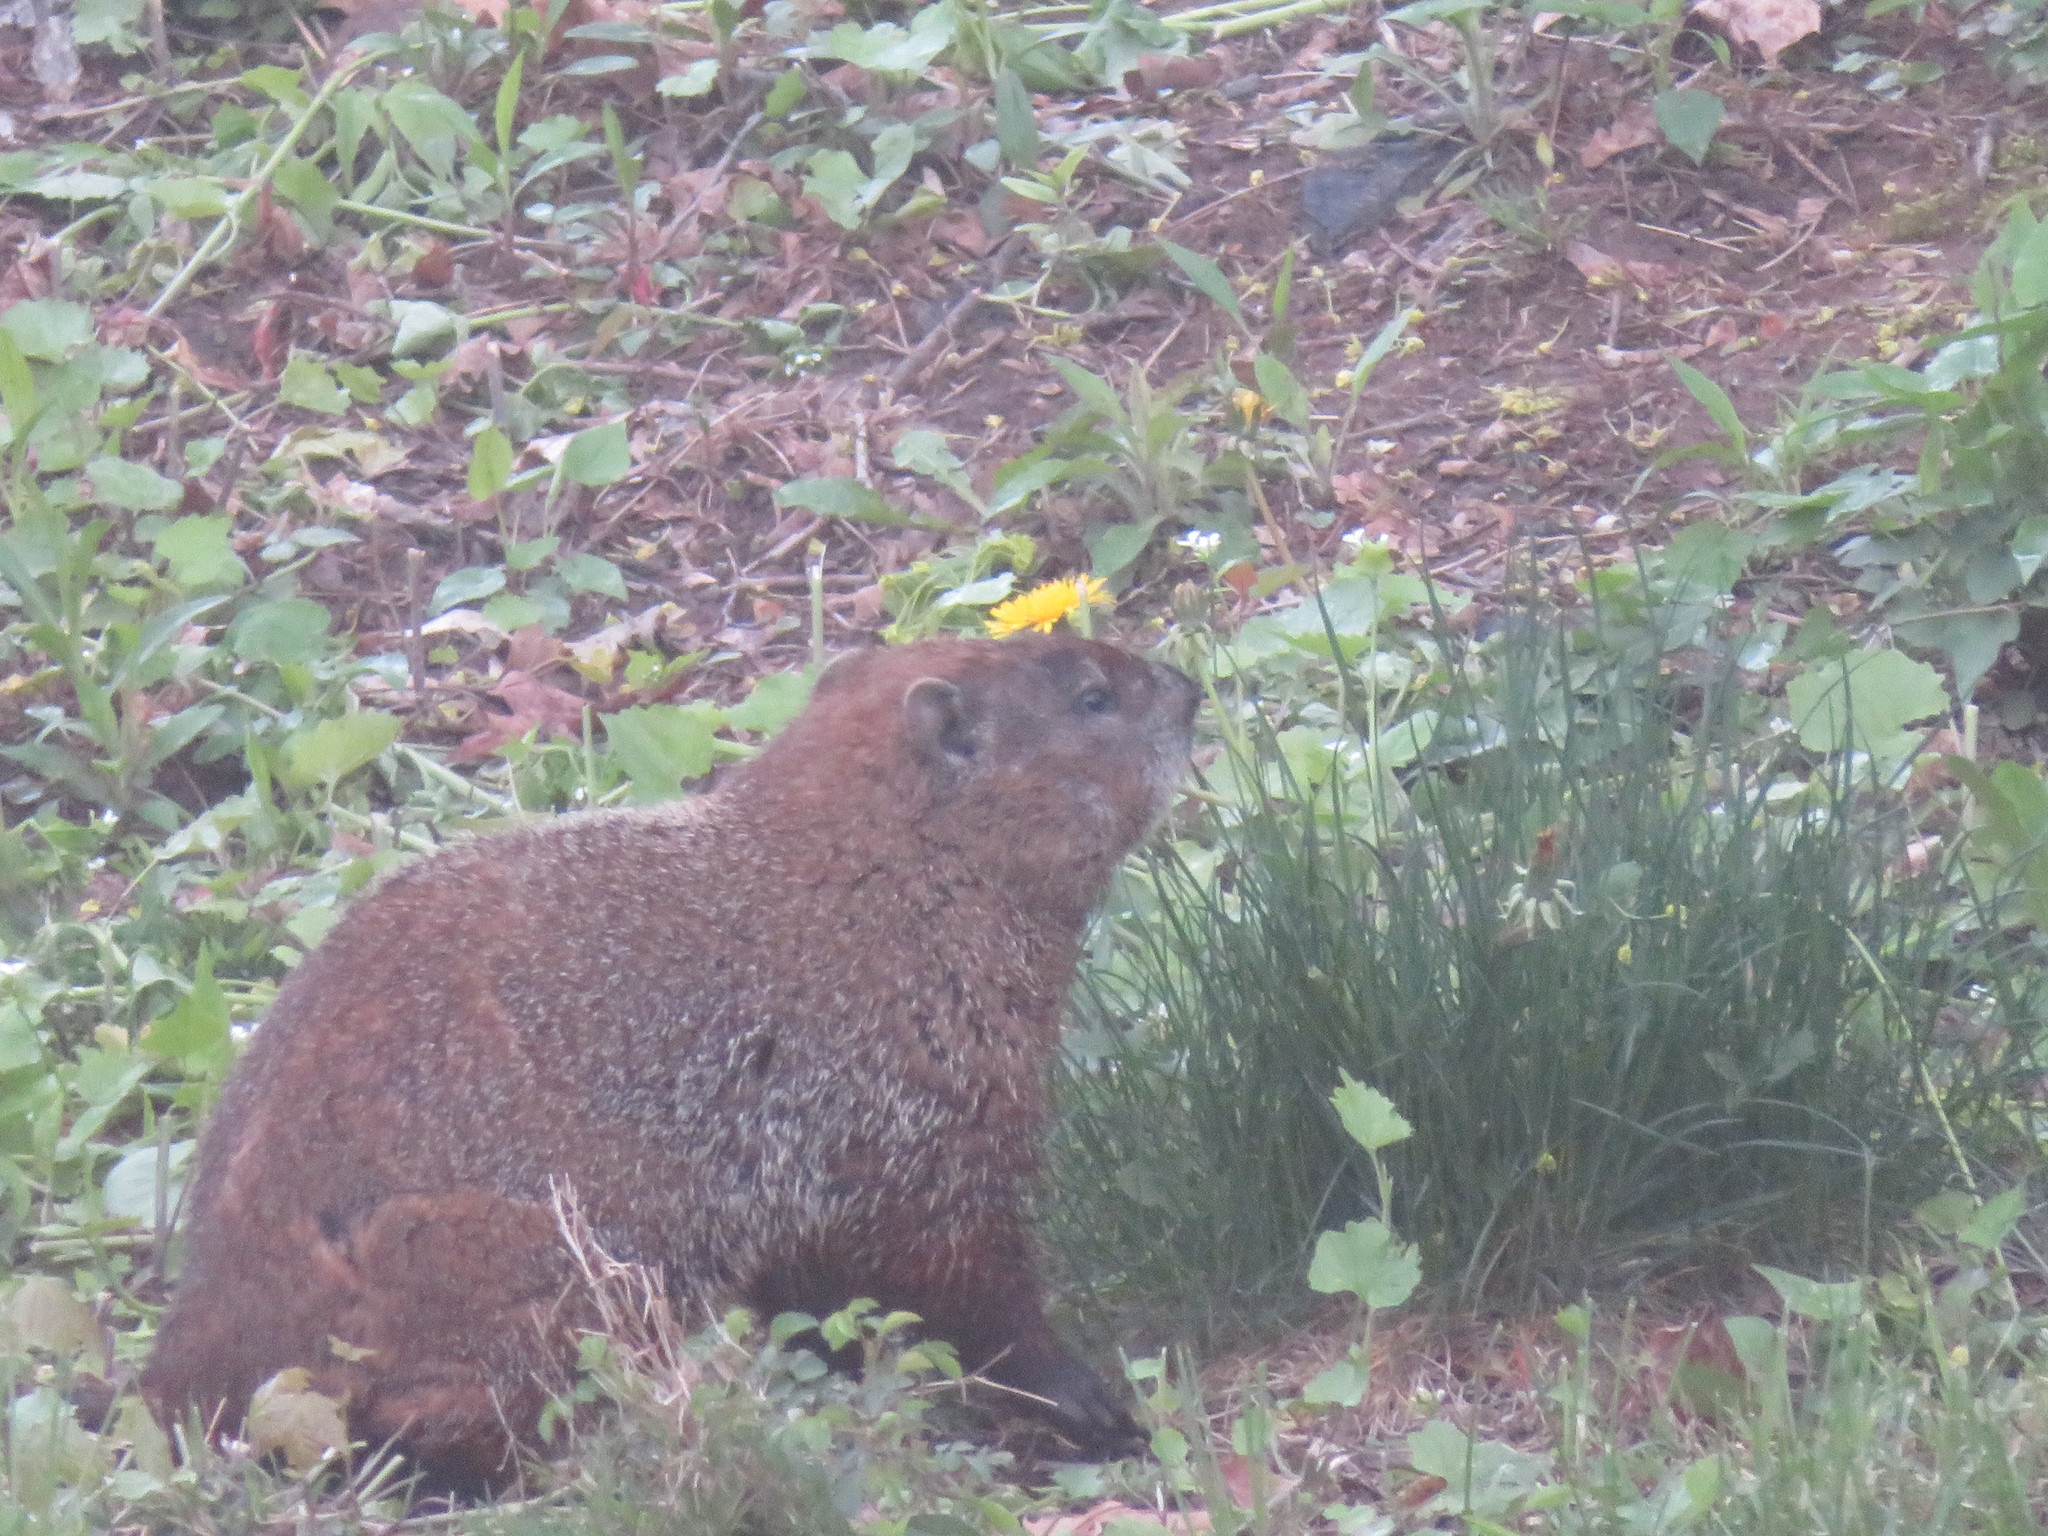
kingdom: Animalia
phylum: Chordata
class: Mammalia
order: Rodentia
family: Sciuridae
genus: Marmota
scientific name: Marmota monax
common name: Groundhog
